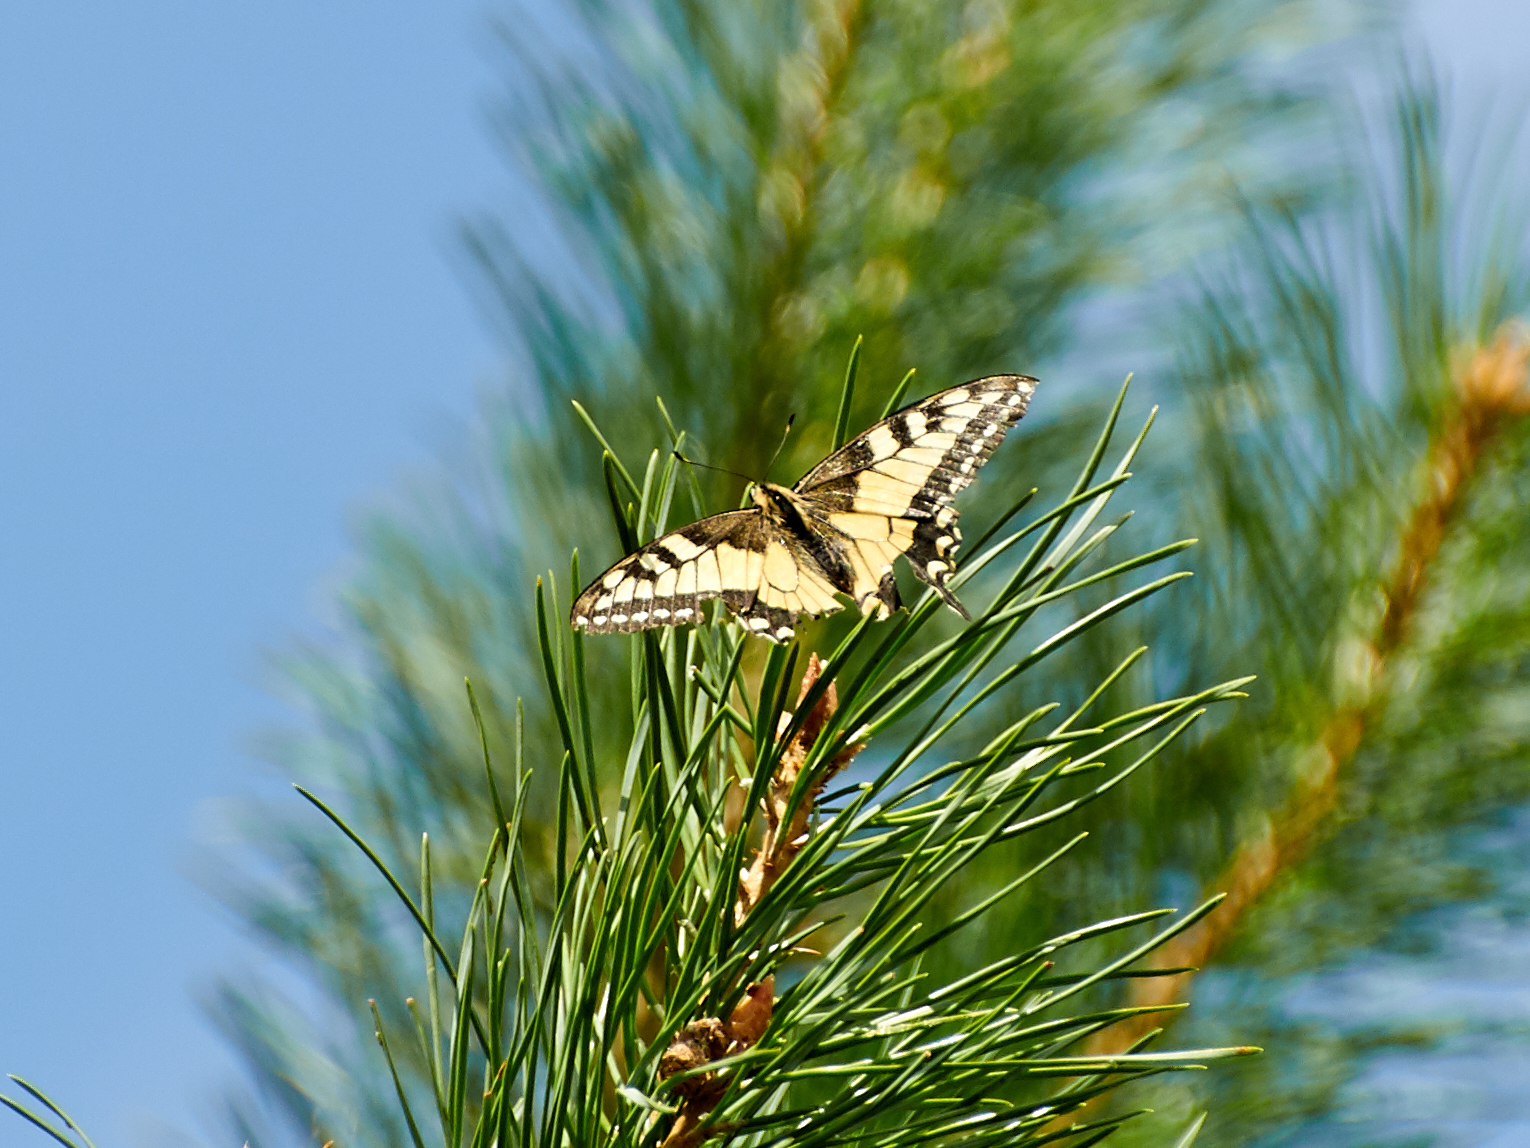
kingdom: Animalia
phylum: Arthropoda
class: Insecta
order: Lepidoptera
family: Papilionidae
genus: Papilio
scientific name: Papilio machaon
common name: Swallowtail
